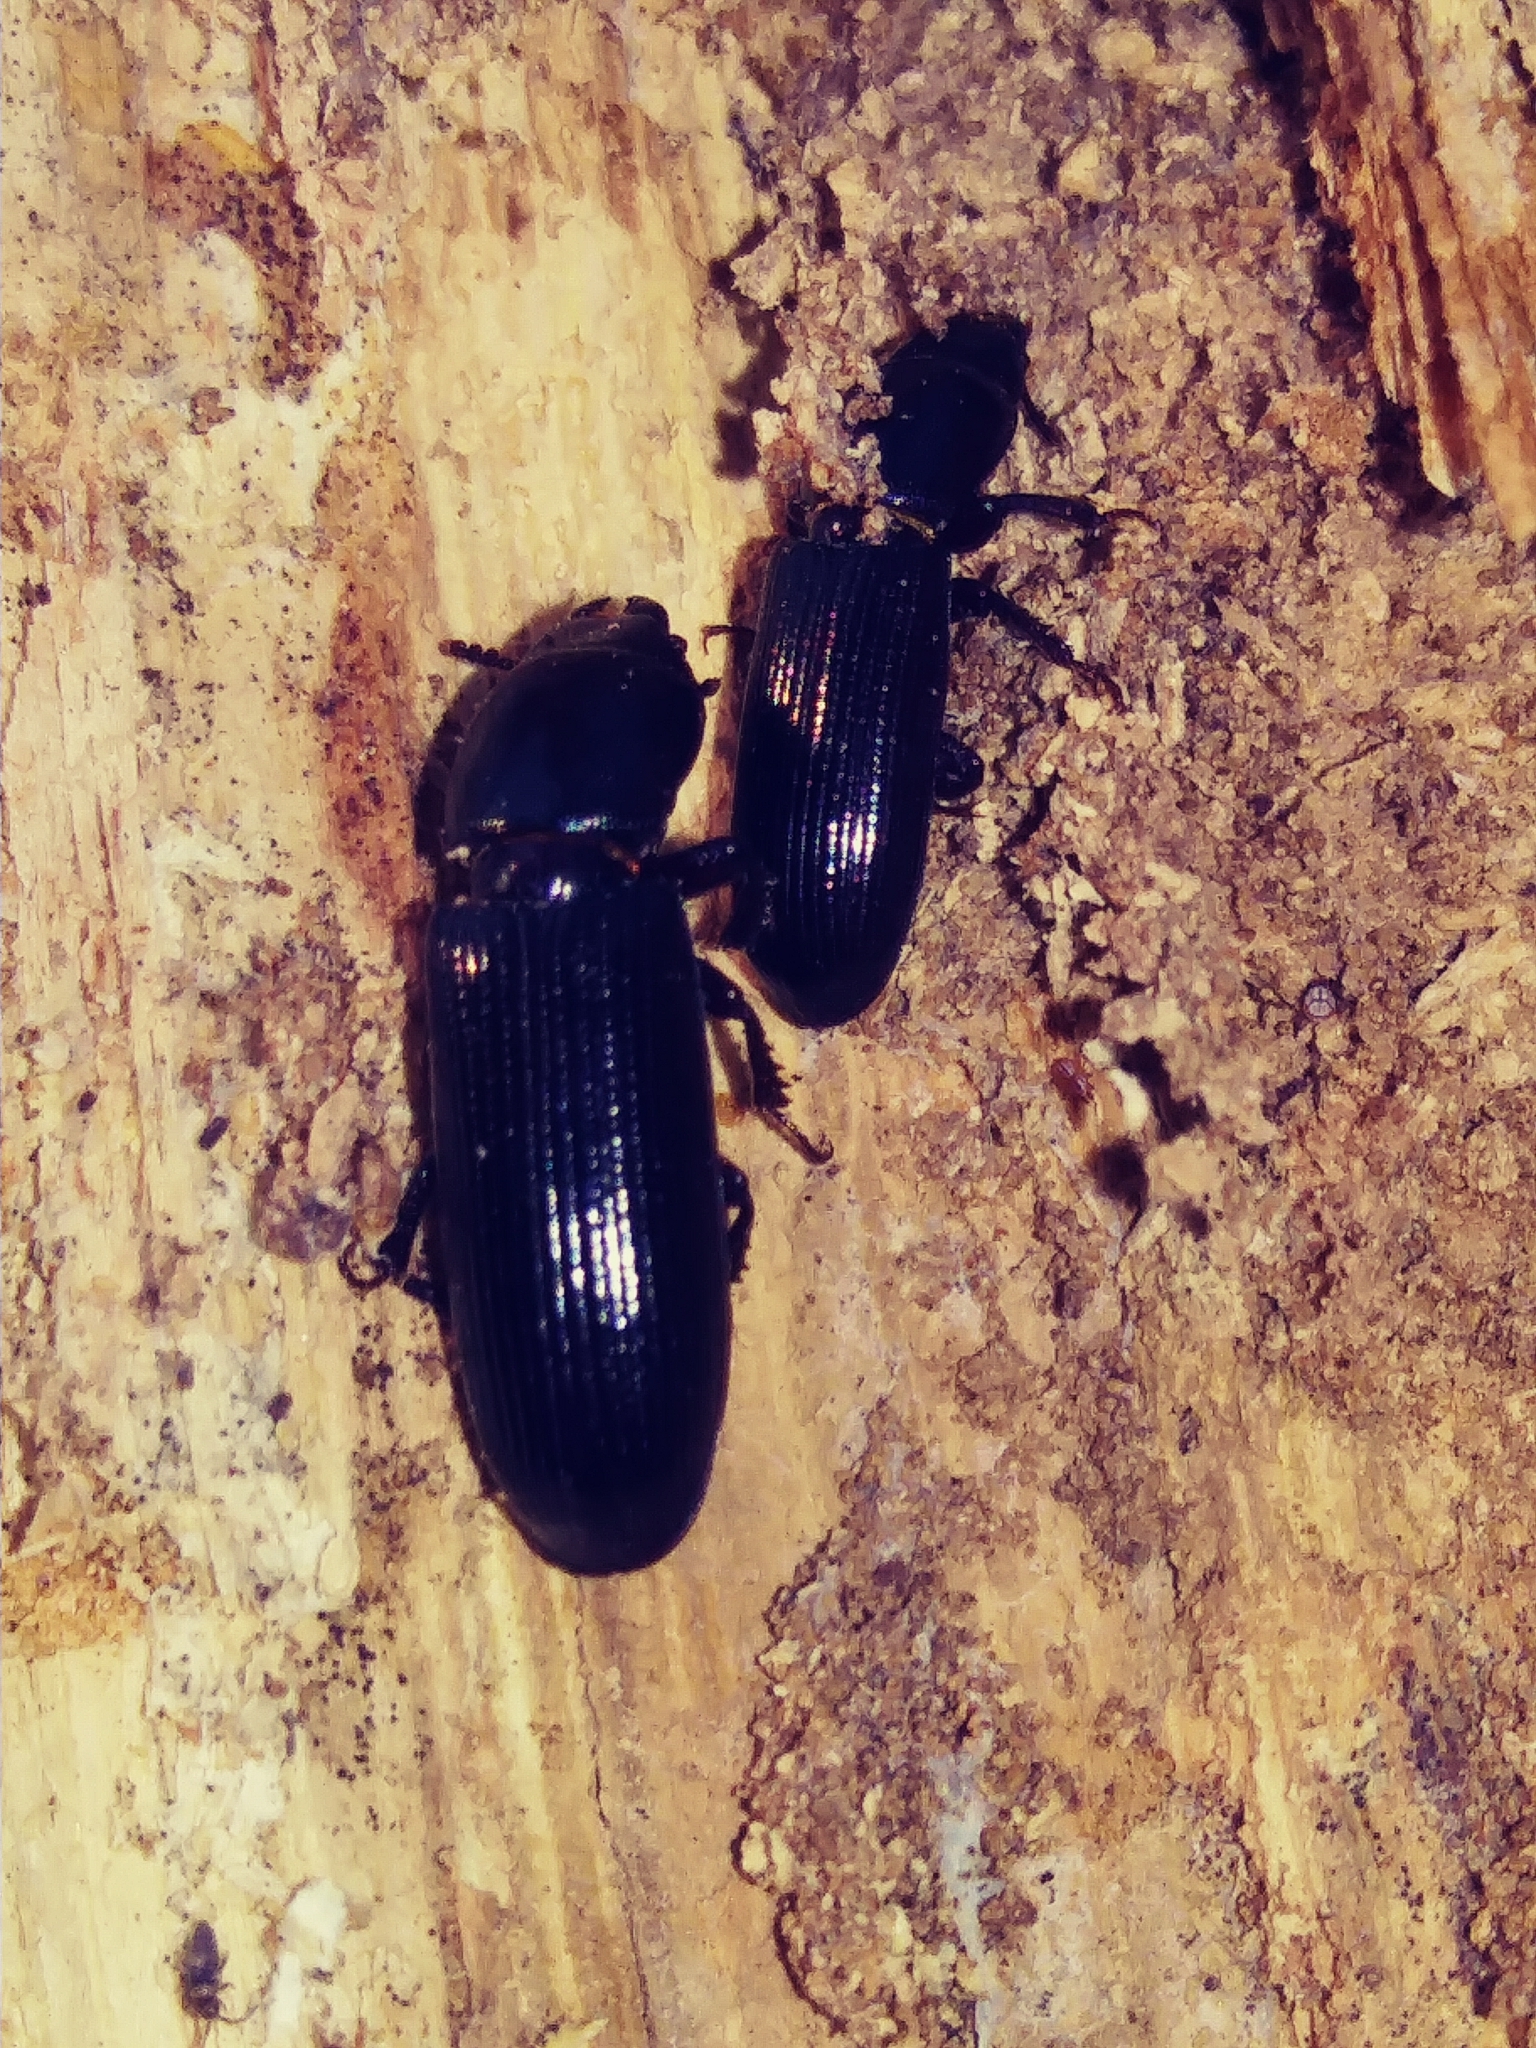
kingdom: Animalia
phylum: Arthropoda
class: Insecta
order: Coleoptera
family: Trogossitidae
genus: Airora
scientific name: Airora cylindrica
